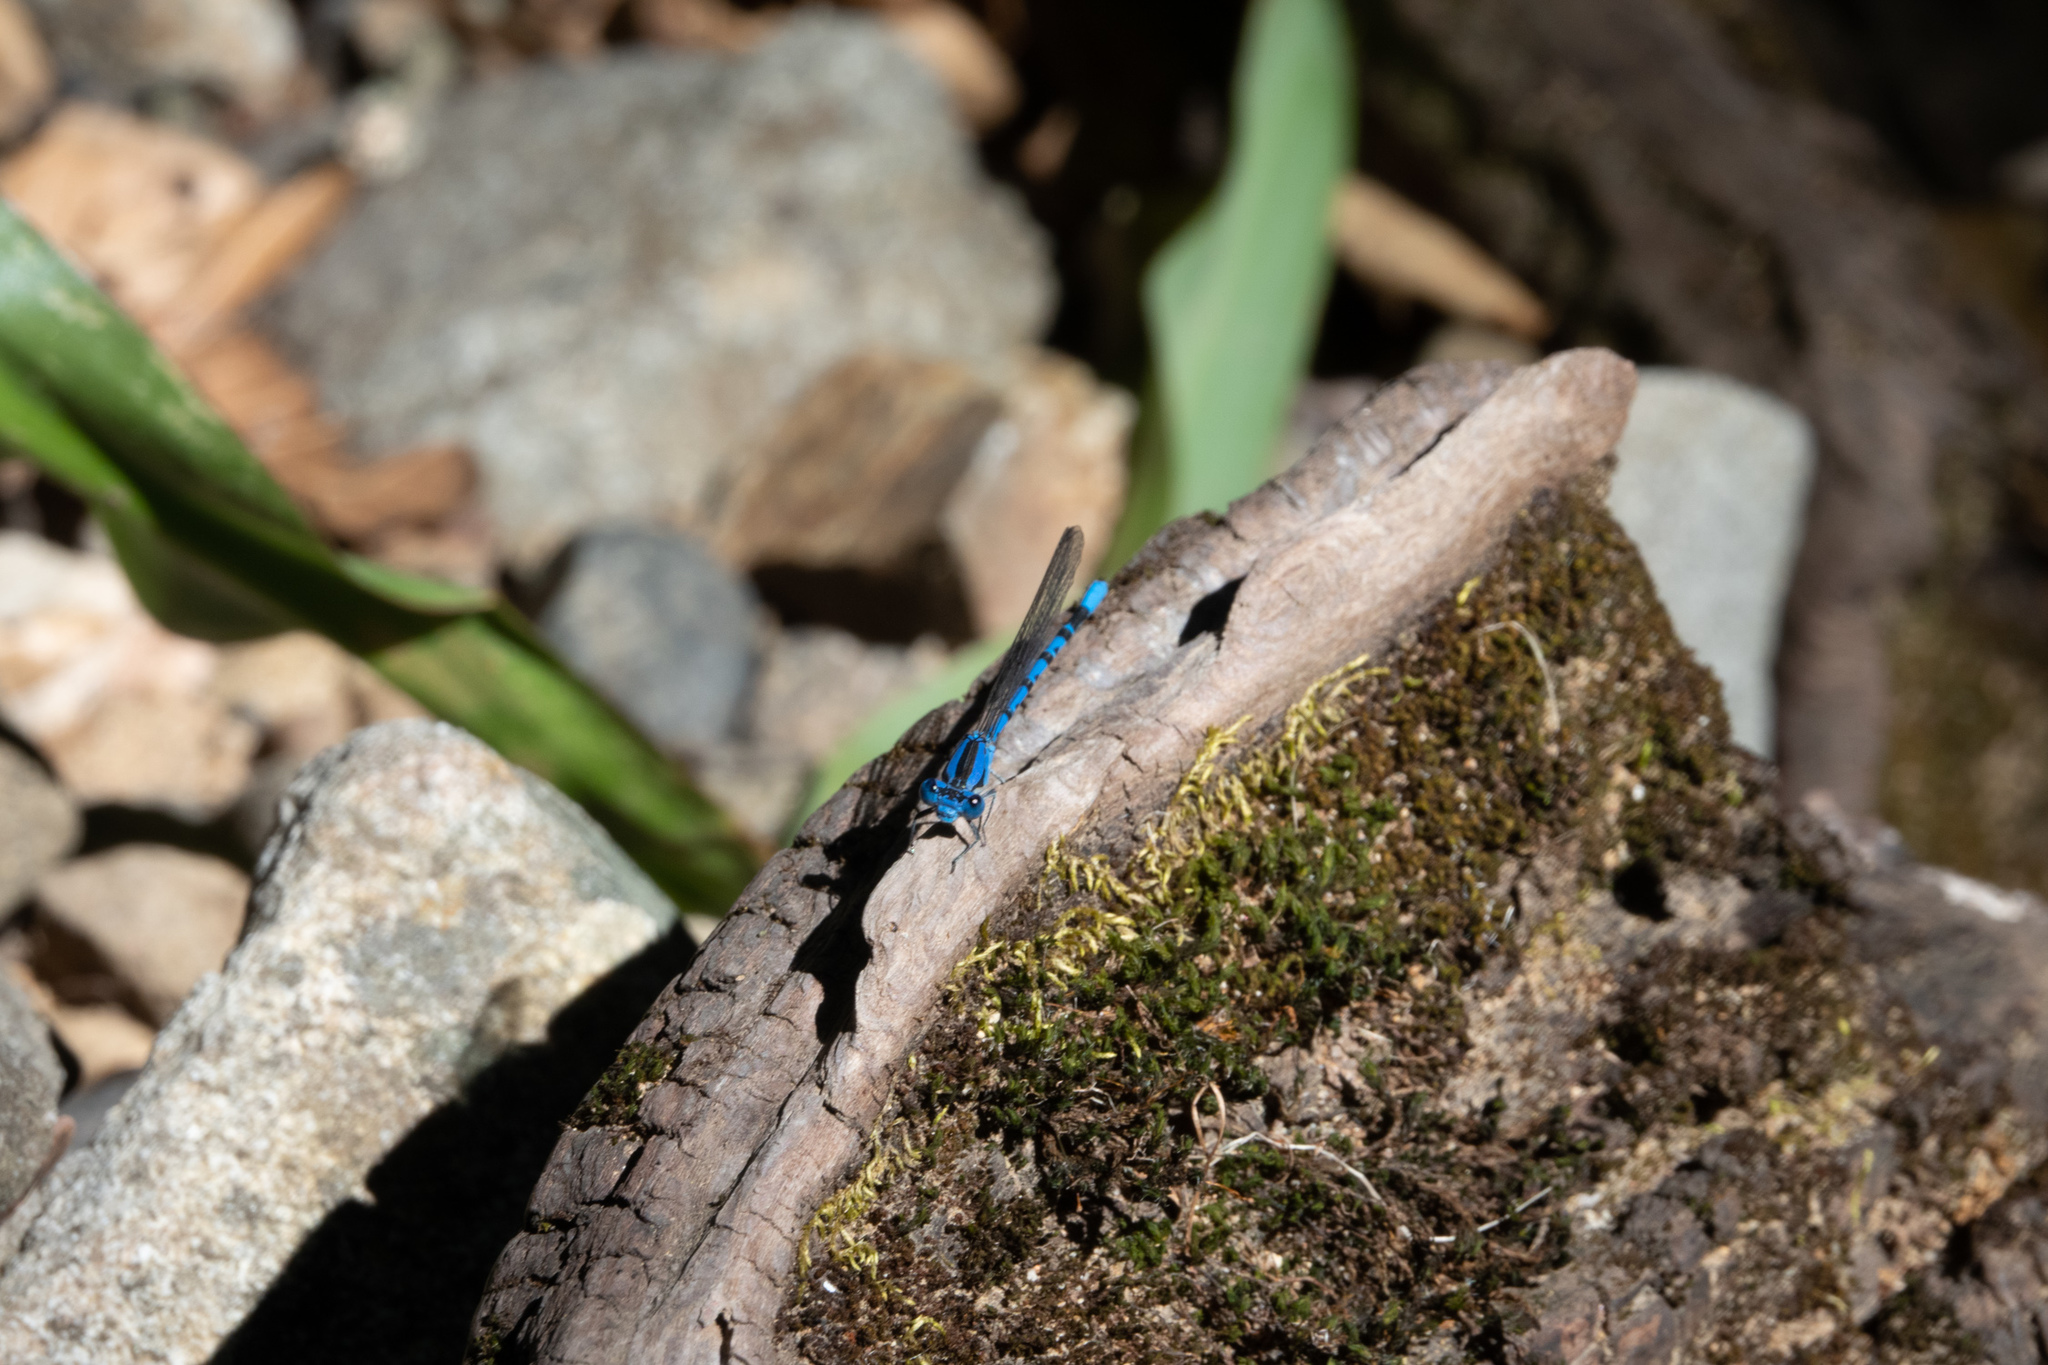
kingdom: Animalia
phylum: Arthropoda
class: Insecta
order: Odonata
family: Coenagrionidae
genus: Argia
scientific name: Argia vivida
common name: Vivid dancer
